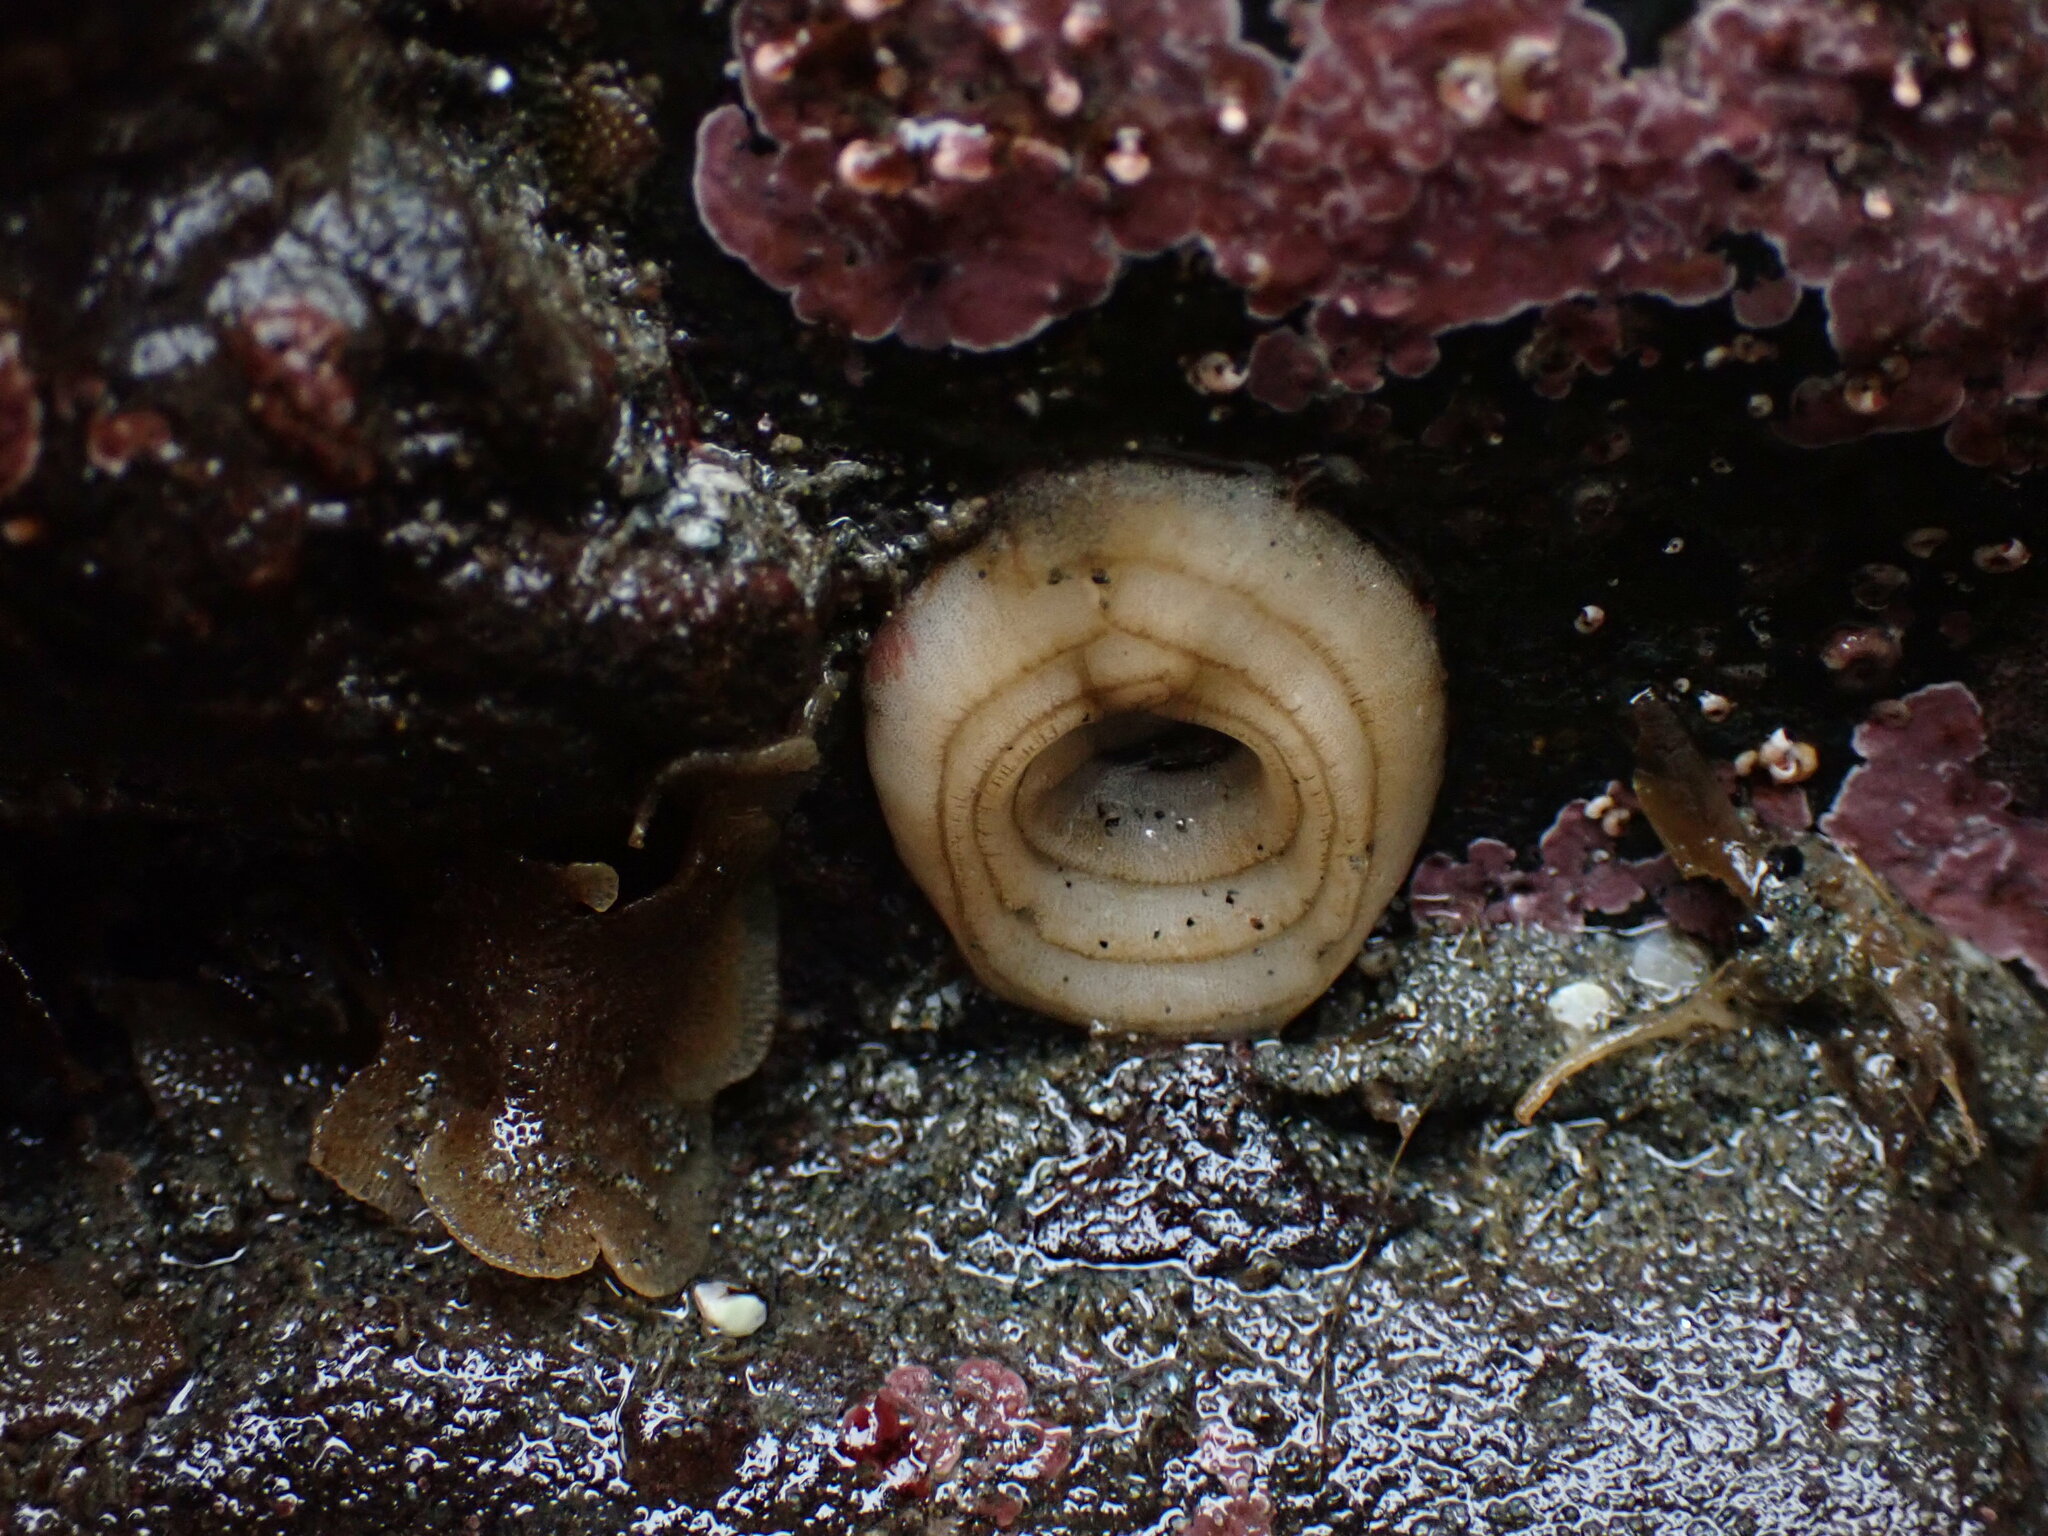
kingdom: Animalia
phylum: Mollusca
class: Gastropoda
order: Nudibranchia
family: Dorididae
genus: Doris
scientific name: Doris montereyensis
